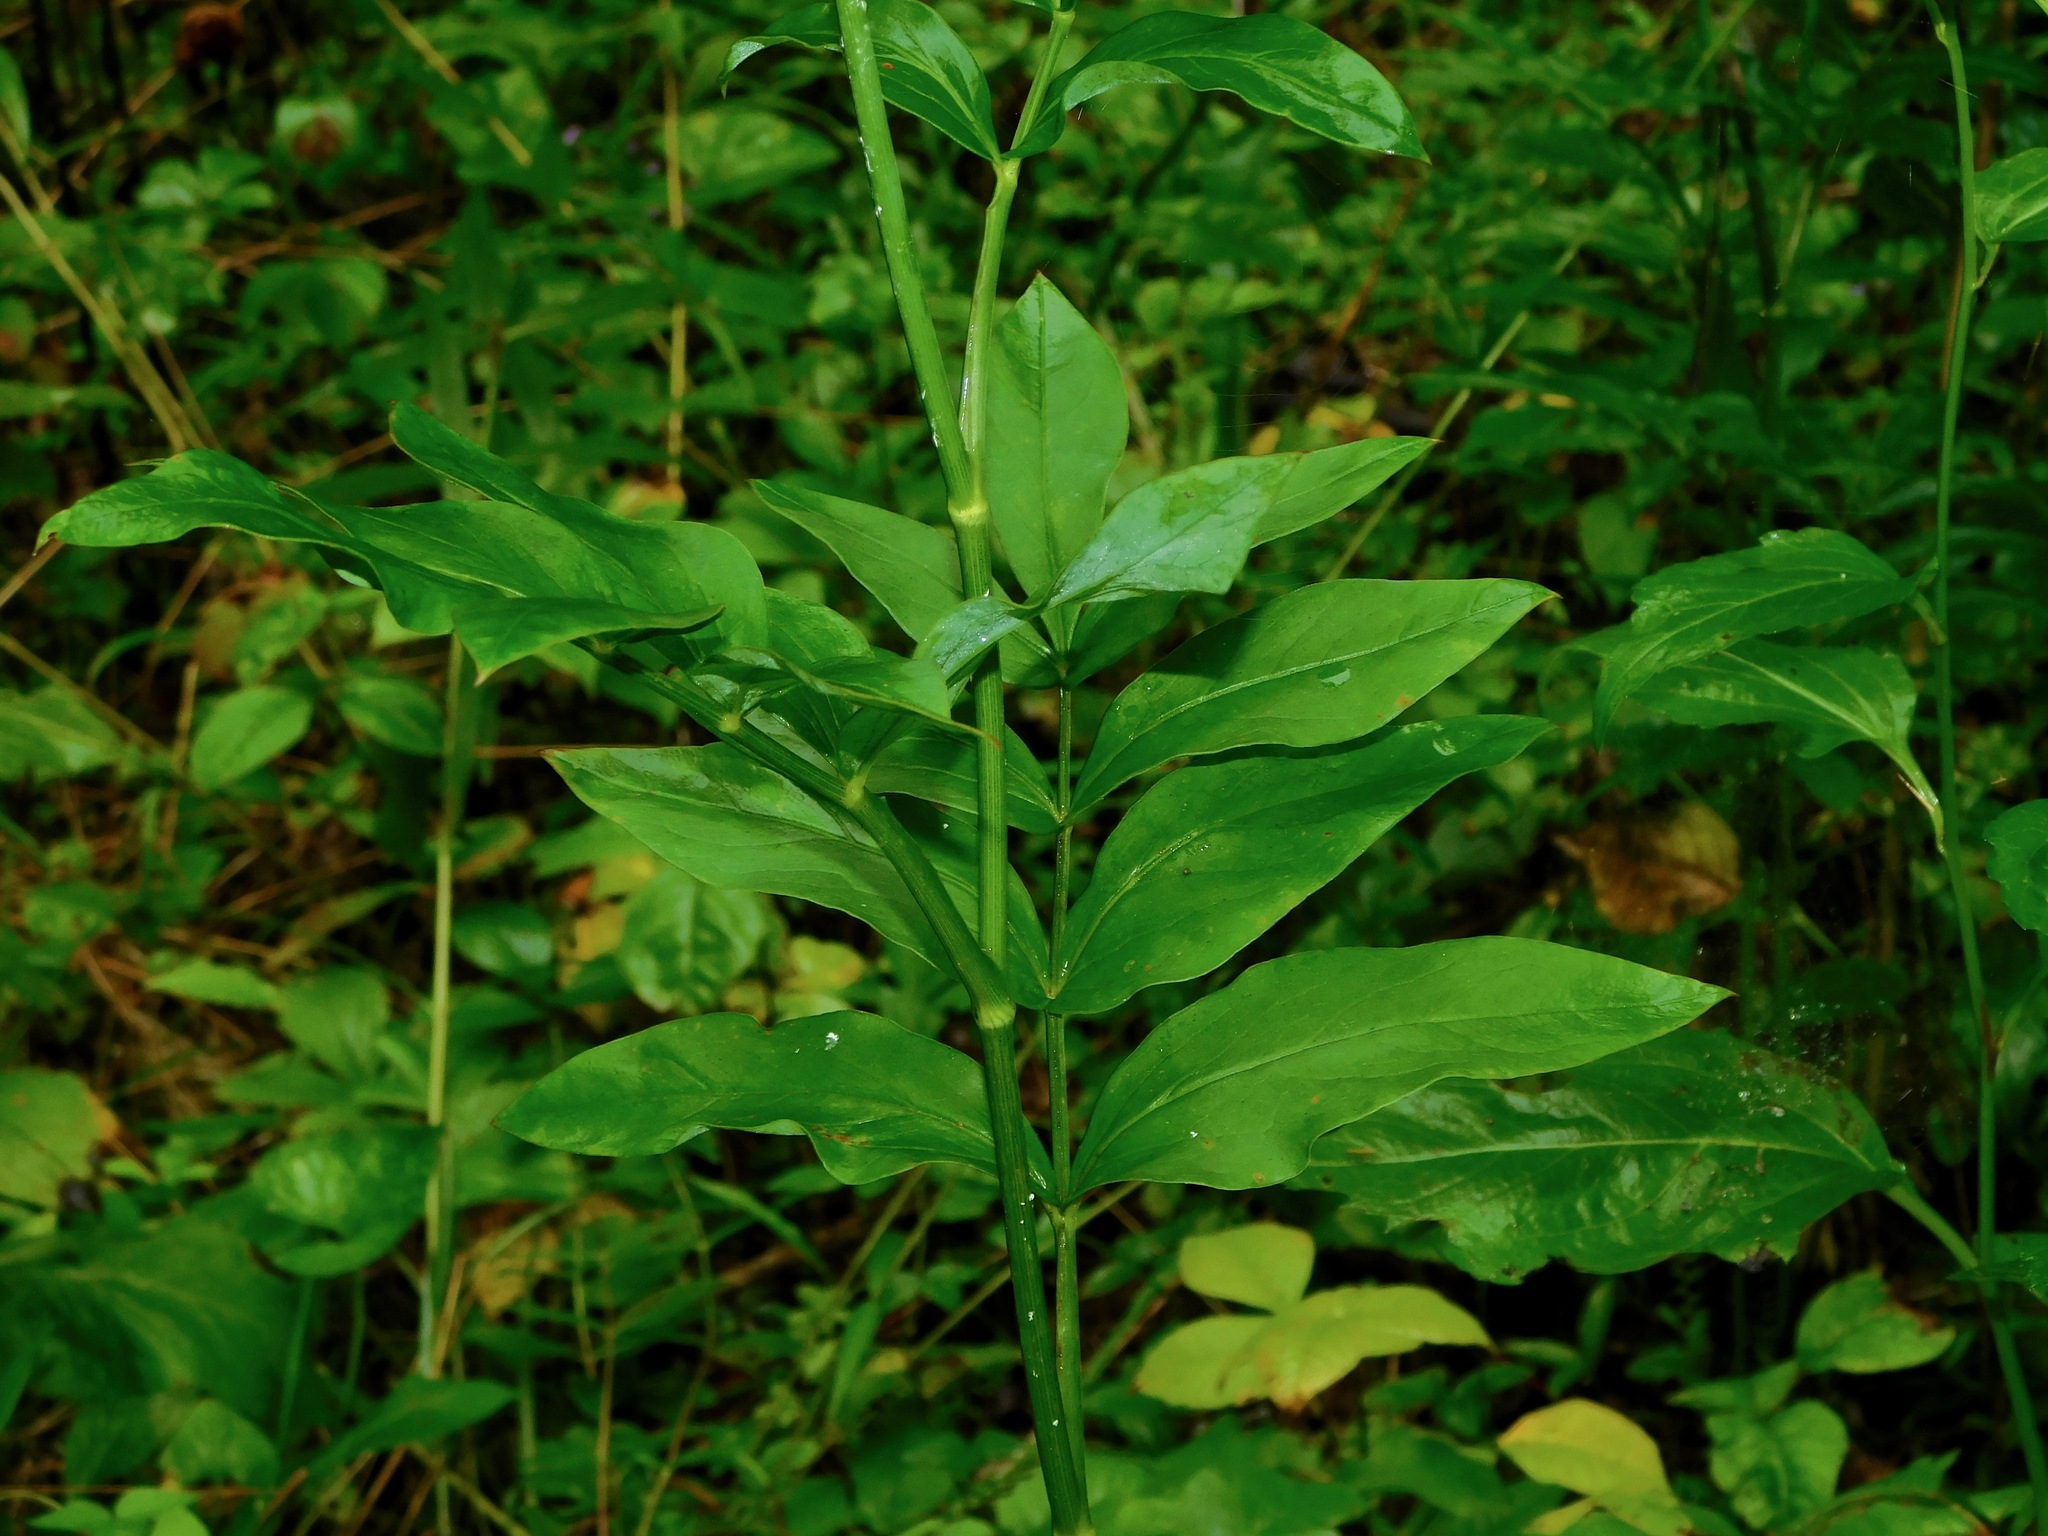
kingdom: Plantae
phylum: Tracheophyta
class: Magnoliopsida
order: Apiales
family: Apiaceae
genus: Oxypolis
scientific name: Oxypolis rigidior
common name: Cowbane
